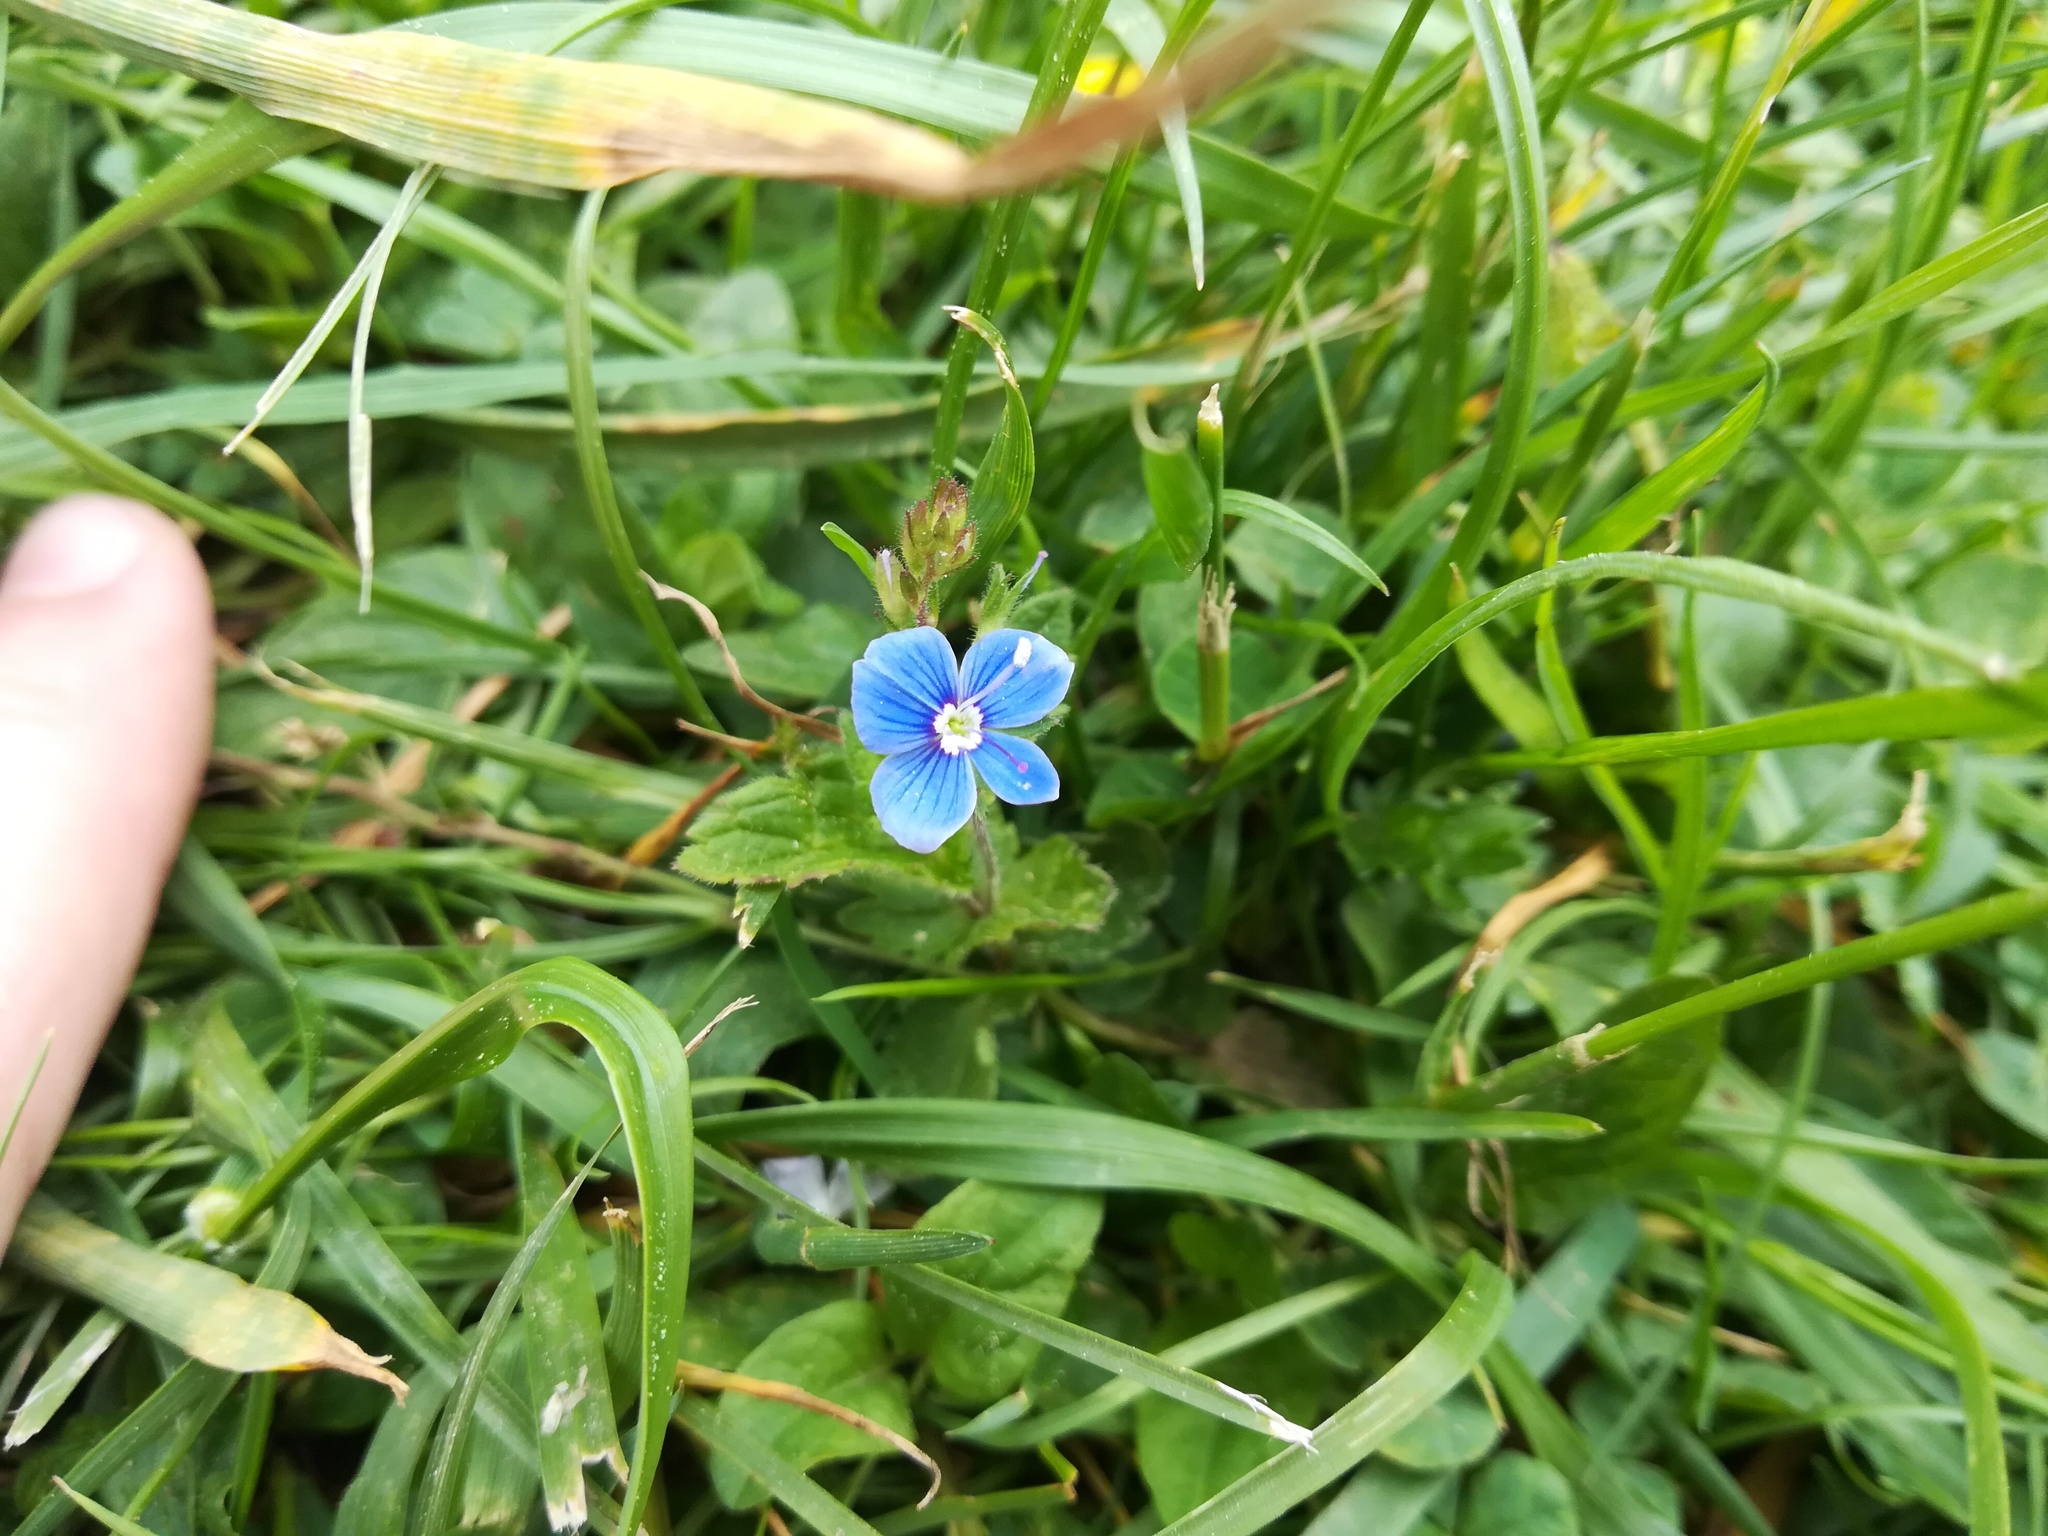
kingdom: Plantae
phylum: Tracheophyta
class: Magnoliopsida
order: Lamiales
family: Plantaginaceae
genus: Veronica
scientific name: Veronica chamaedrys
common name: Germander speedwell
